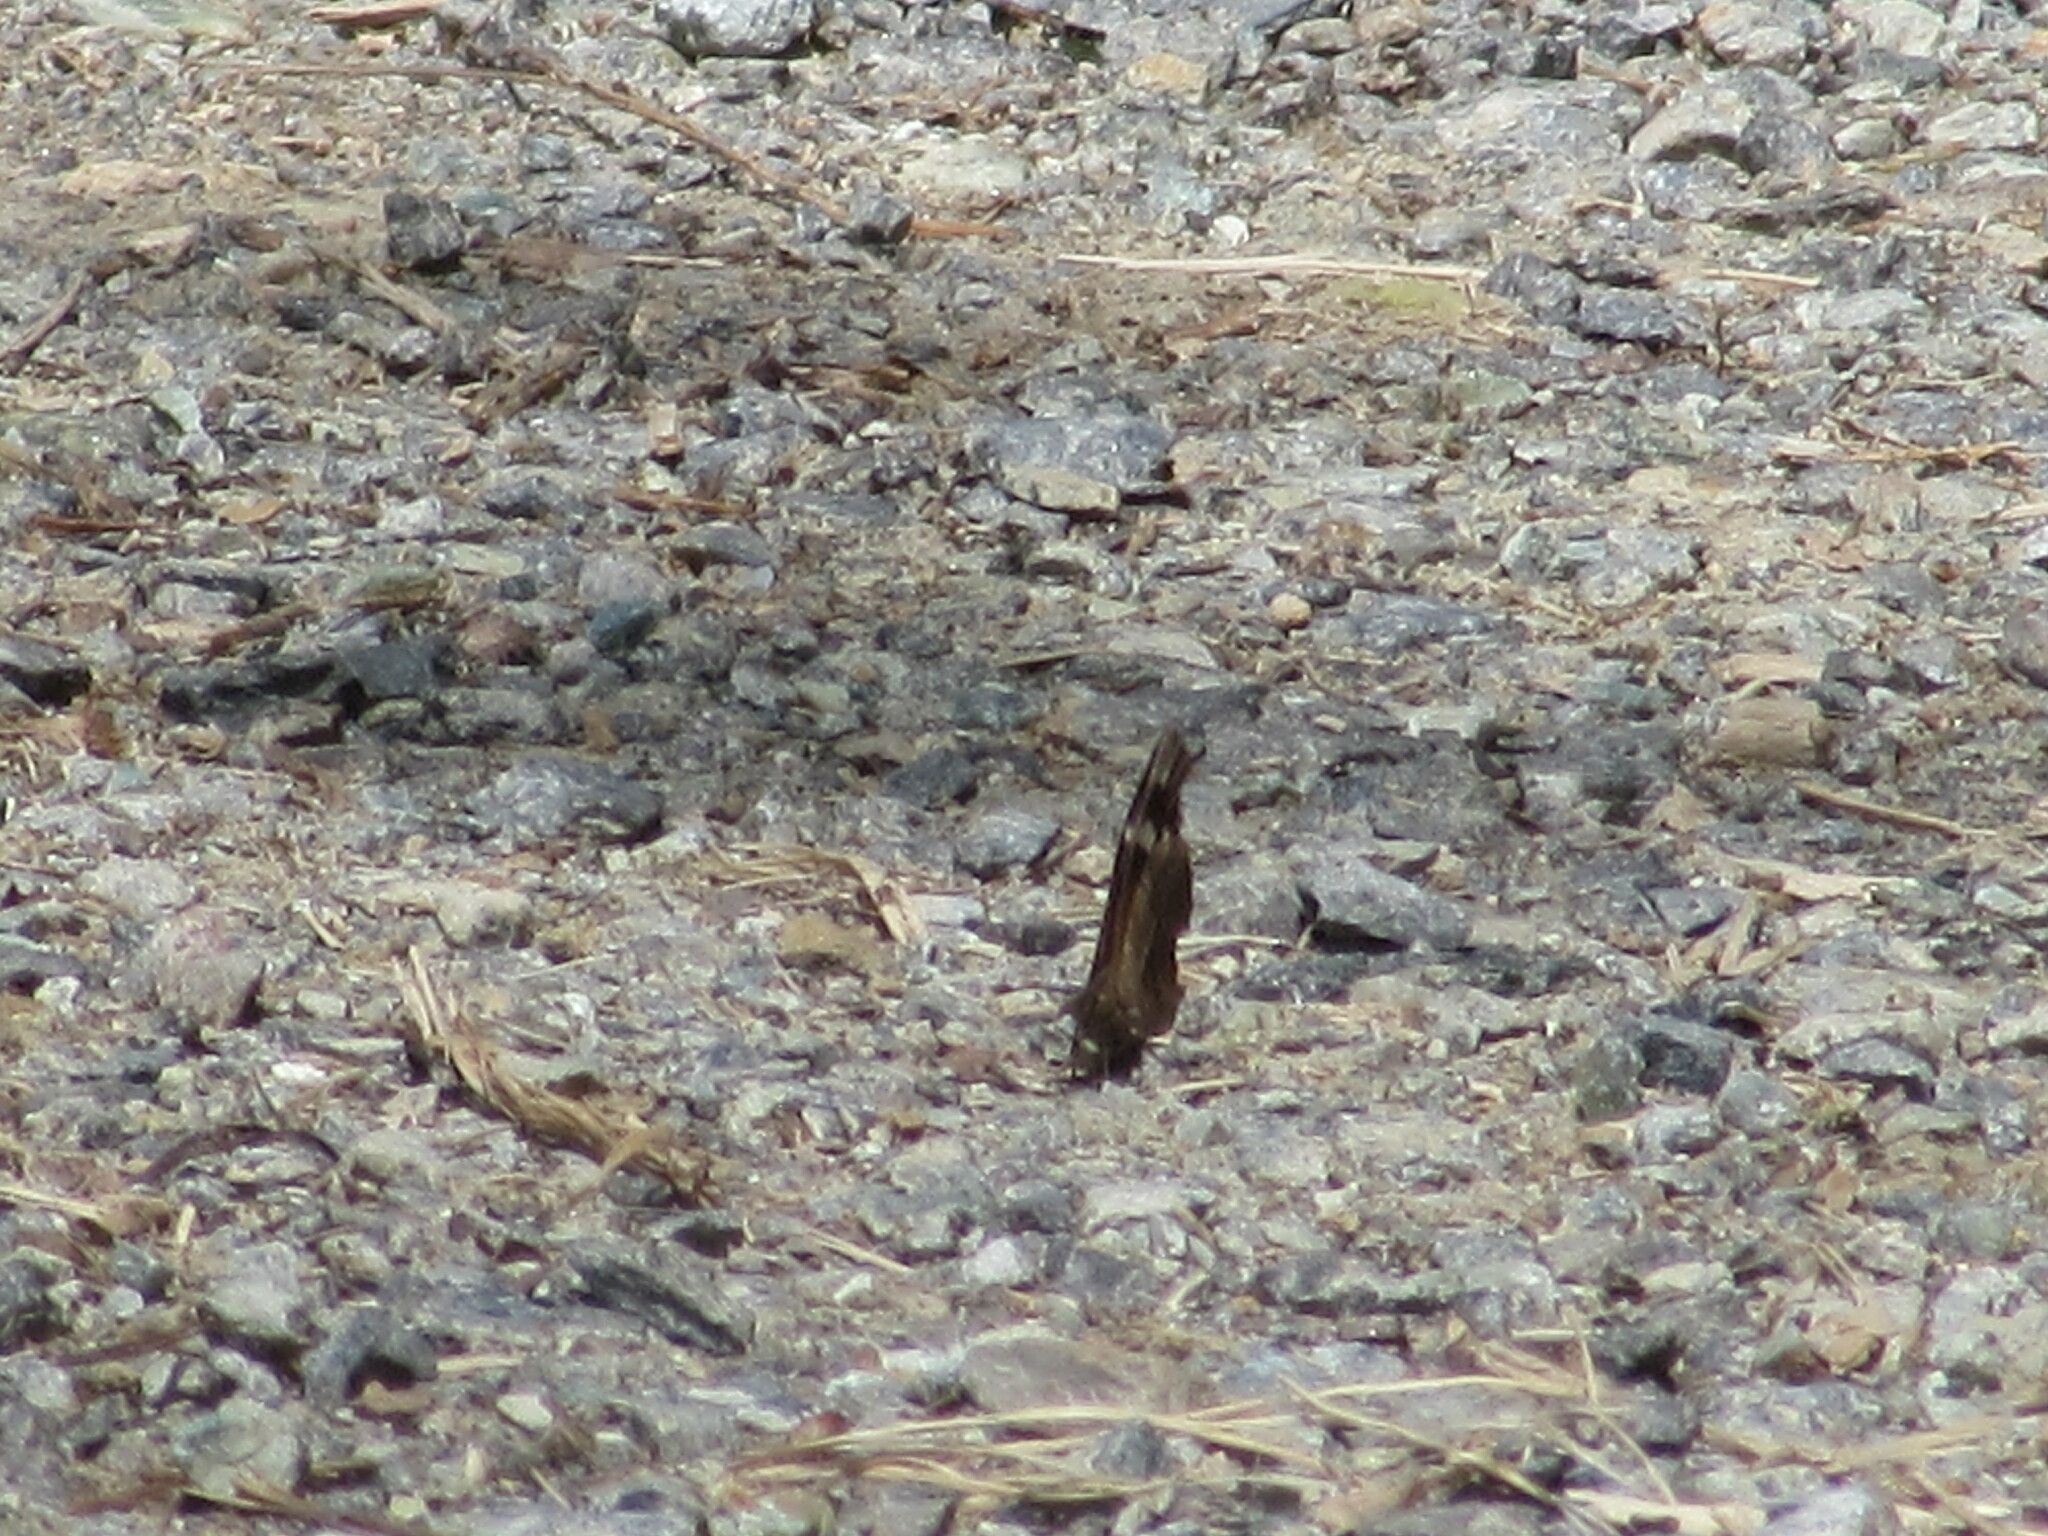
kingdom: Animalia
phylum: Arthropoda
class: Insecta
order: Lepidoptera
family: Nymphalidae
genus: Libytheana
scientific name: Libytheana carinenta
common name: American snout
